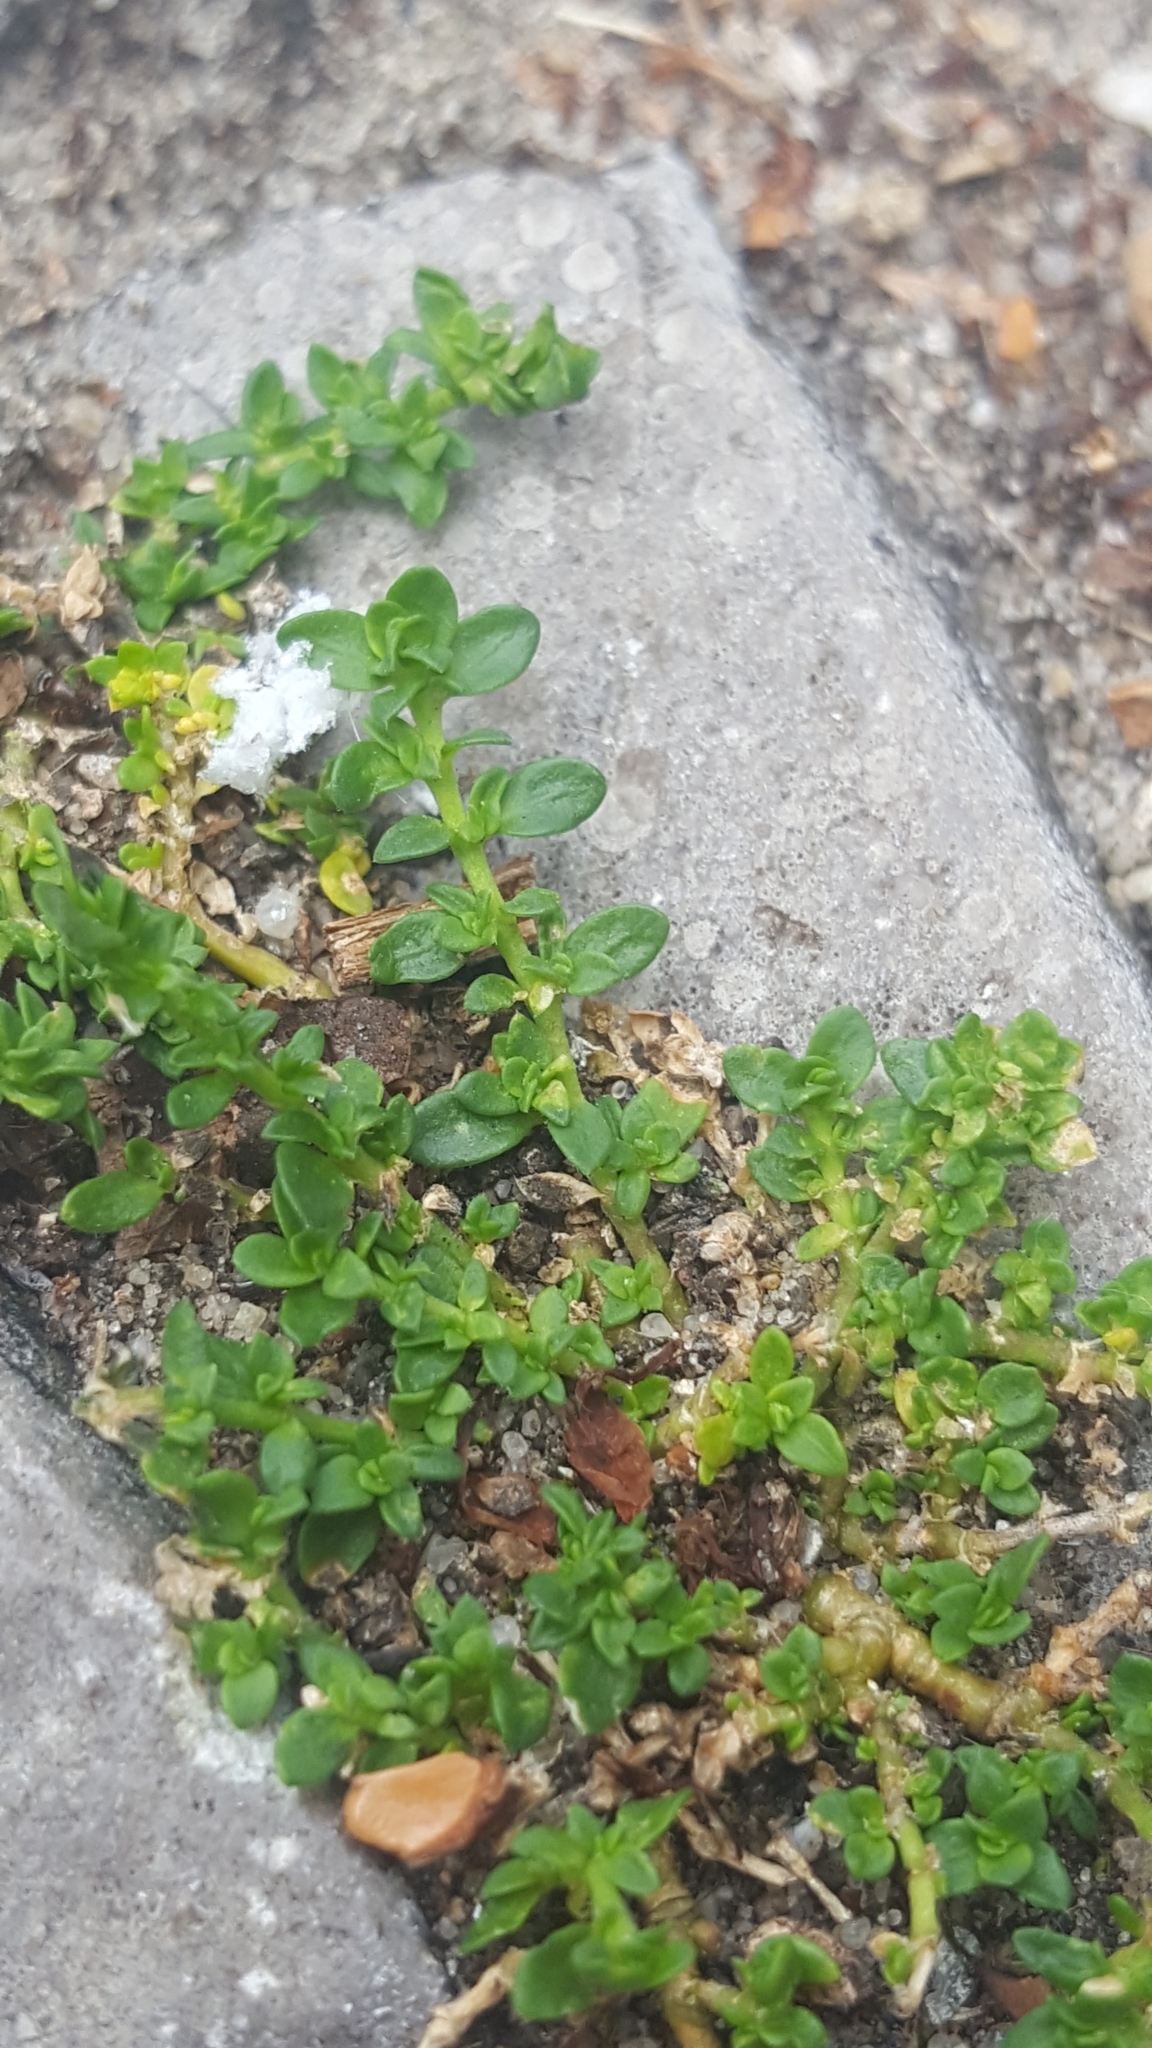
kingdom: Plantae
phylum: Tracheophyta
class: Magnoliopsida
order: Caryophyllales
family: Caryophyllaceae
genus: Herniaria
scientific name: Herniaria glabra
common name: Smooth rupturewort
